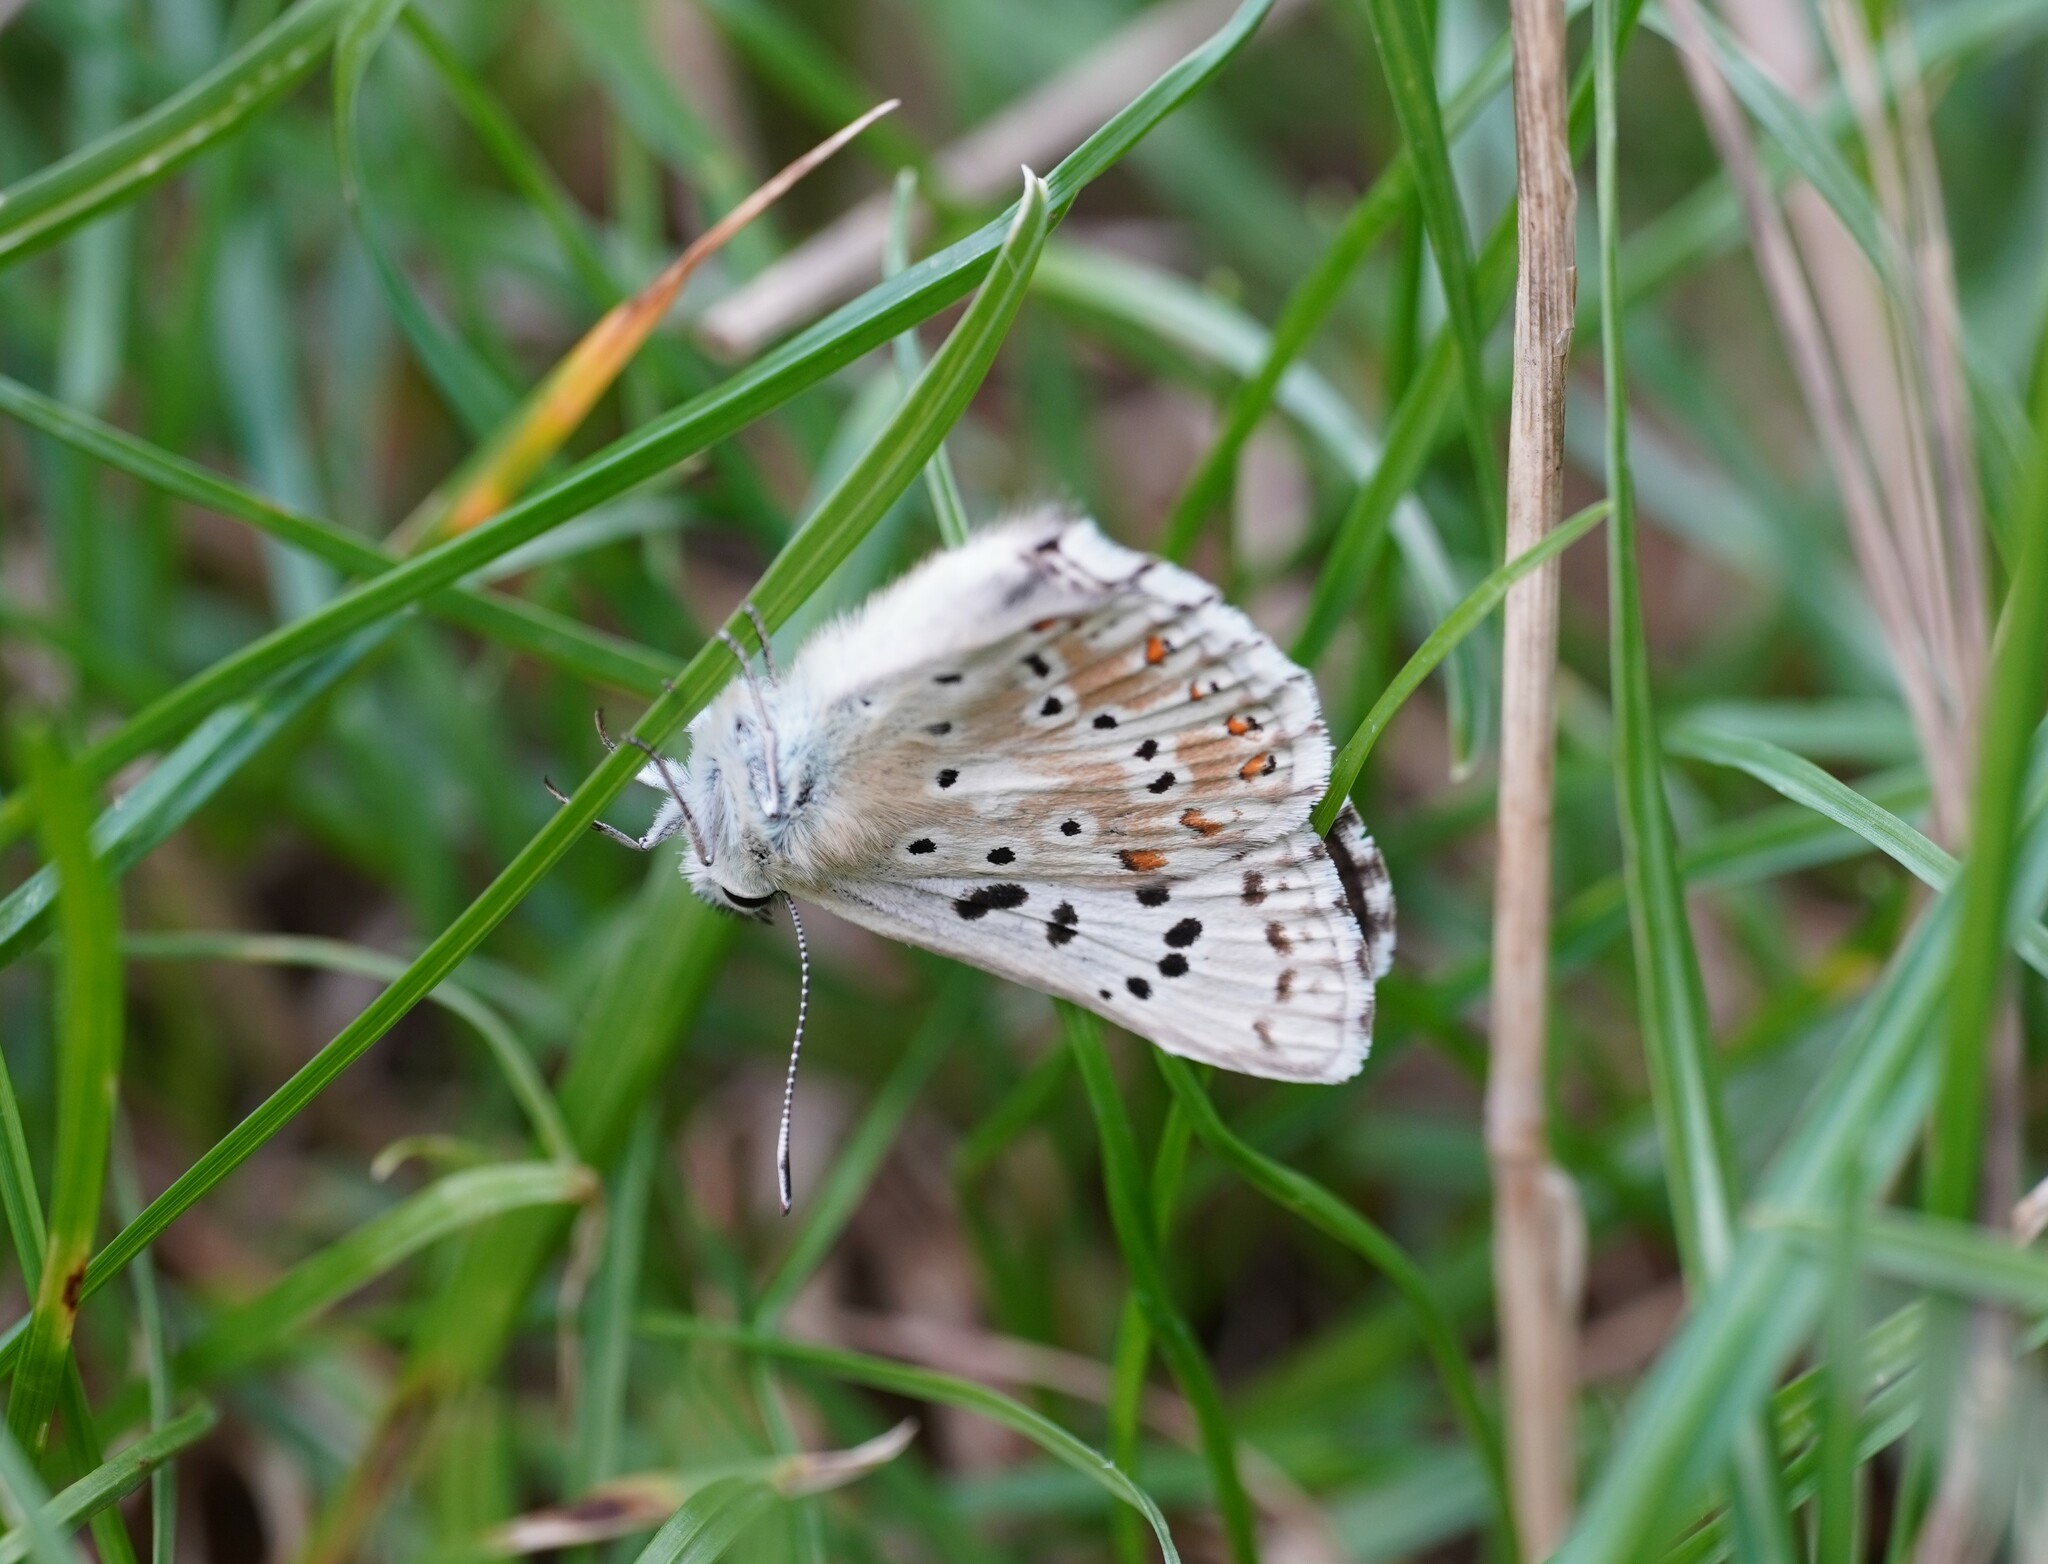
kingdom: Animalia
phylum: Arthropoda
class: Insecta
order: Lepidoptera
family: Lycaenidae
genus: Lysandra
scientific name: Lysandra coridon
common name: Chalkhill blue
